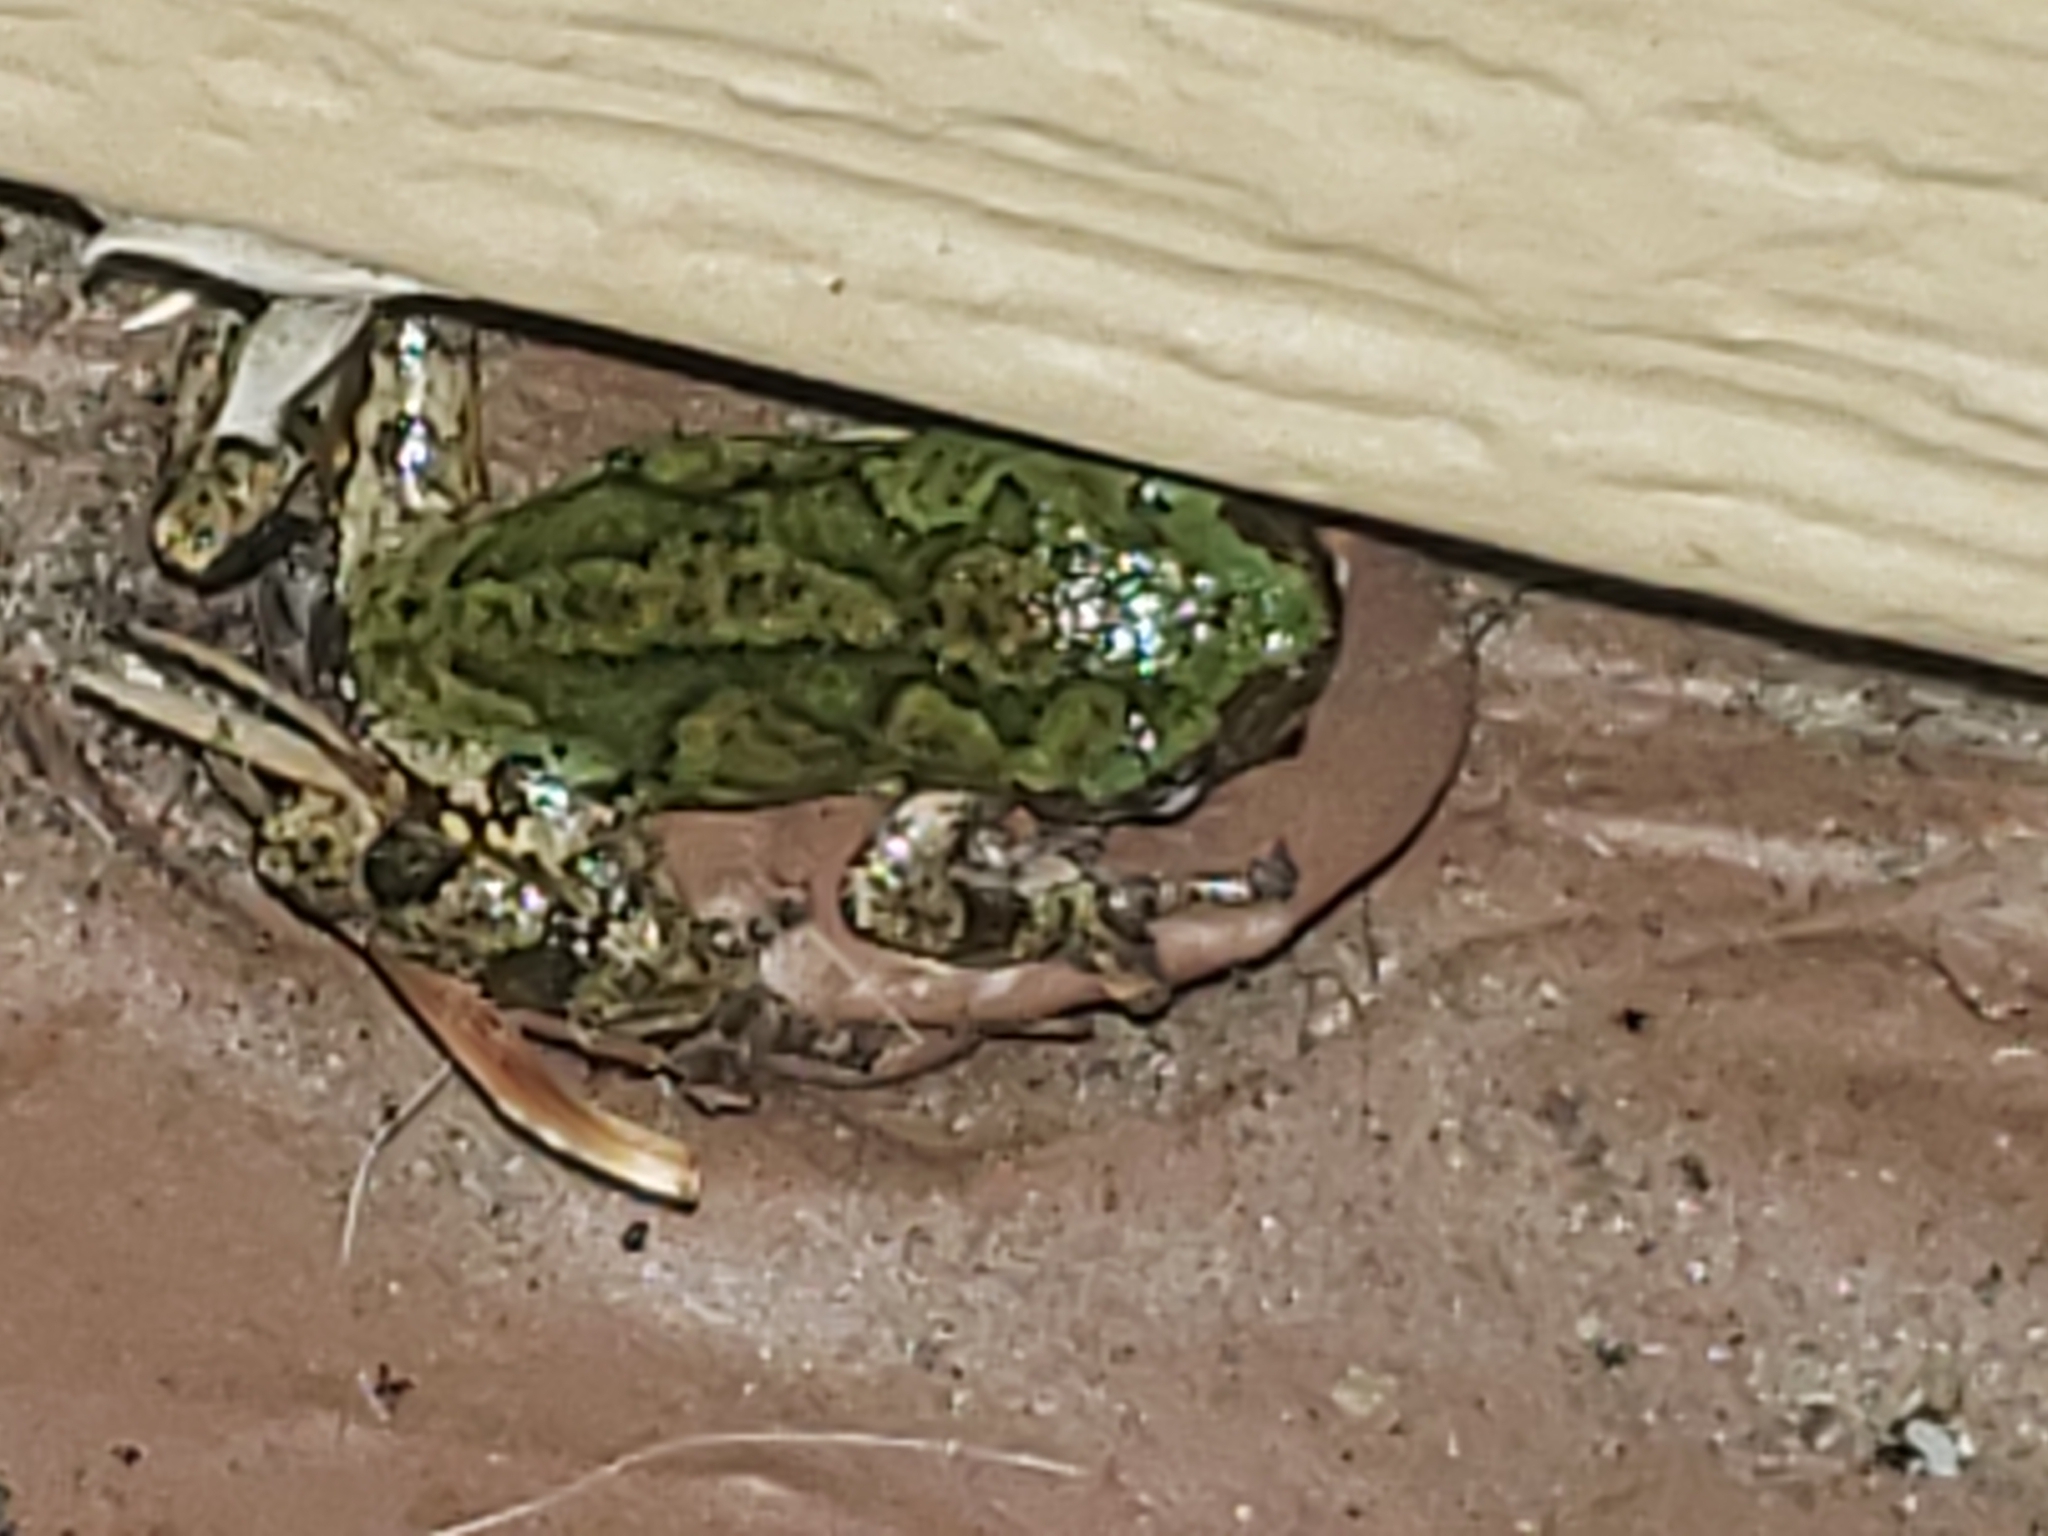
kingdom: Animalia
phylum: Chordata
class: Amphibia
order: Anura
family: Hylidae
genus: Hyla
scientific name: Hyla
